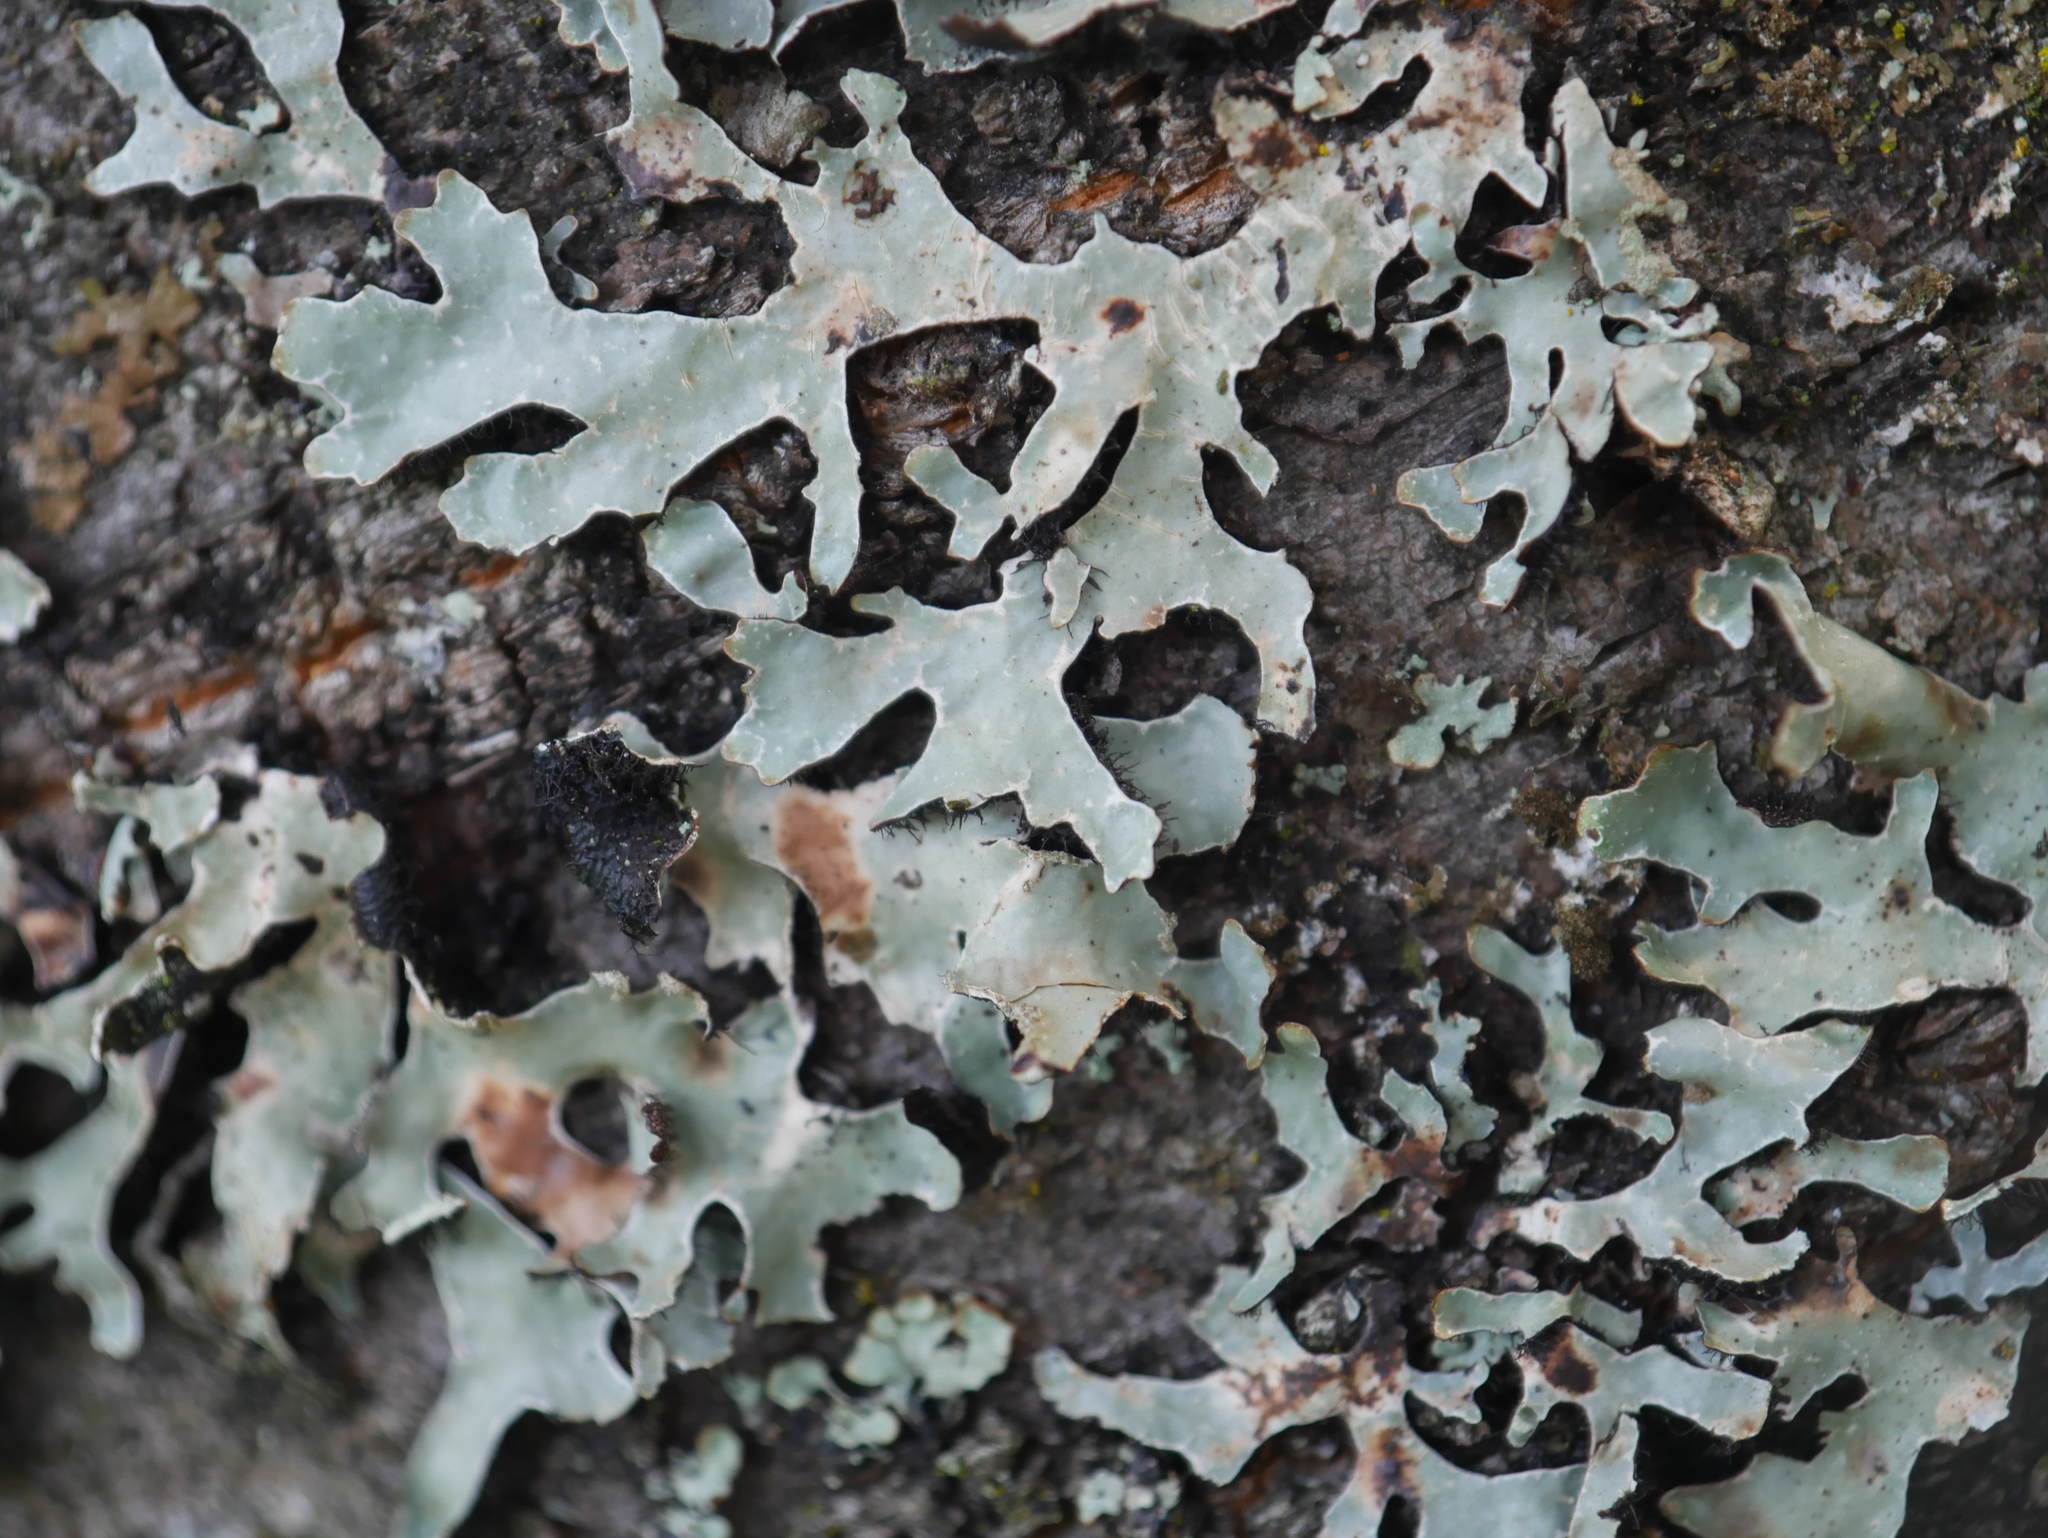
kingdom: Fungi
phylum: Ascomycota
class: Lecanoromycetes
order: Lecanorales
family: Parmeliaceae
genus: Parmelia
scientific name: Parmelia sulcata
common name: Netted shield lichen
